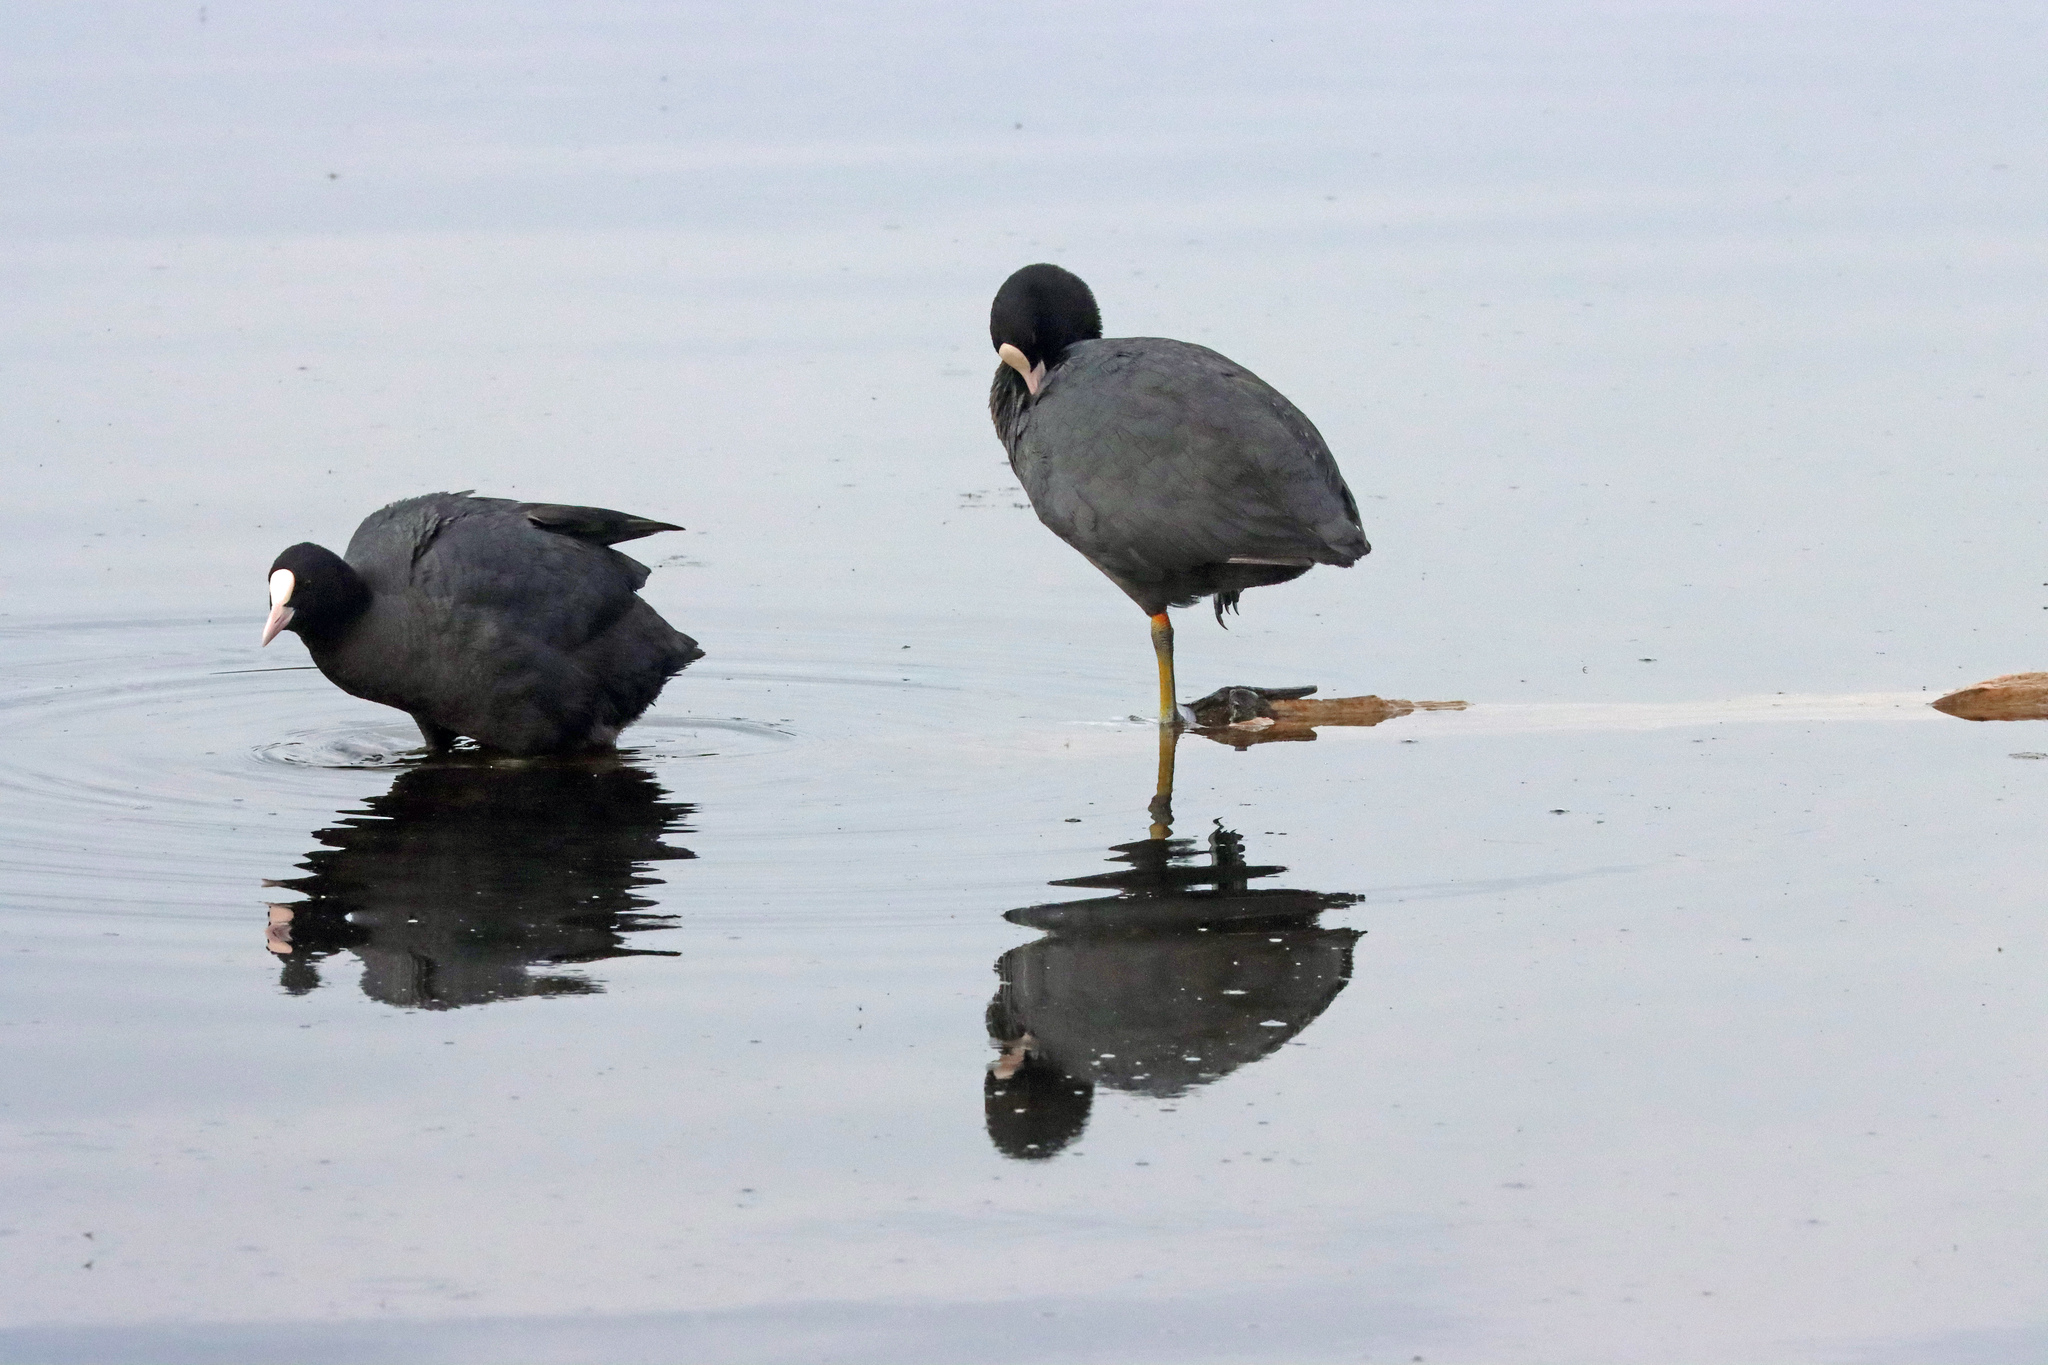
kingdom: Animalia
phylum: Chordata
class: Aves
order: Gruiformes
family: Rallidae
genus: Fulica
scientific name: Fulica atra
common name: Eurasian coot
